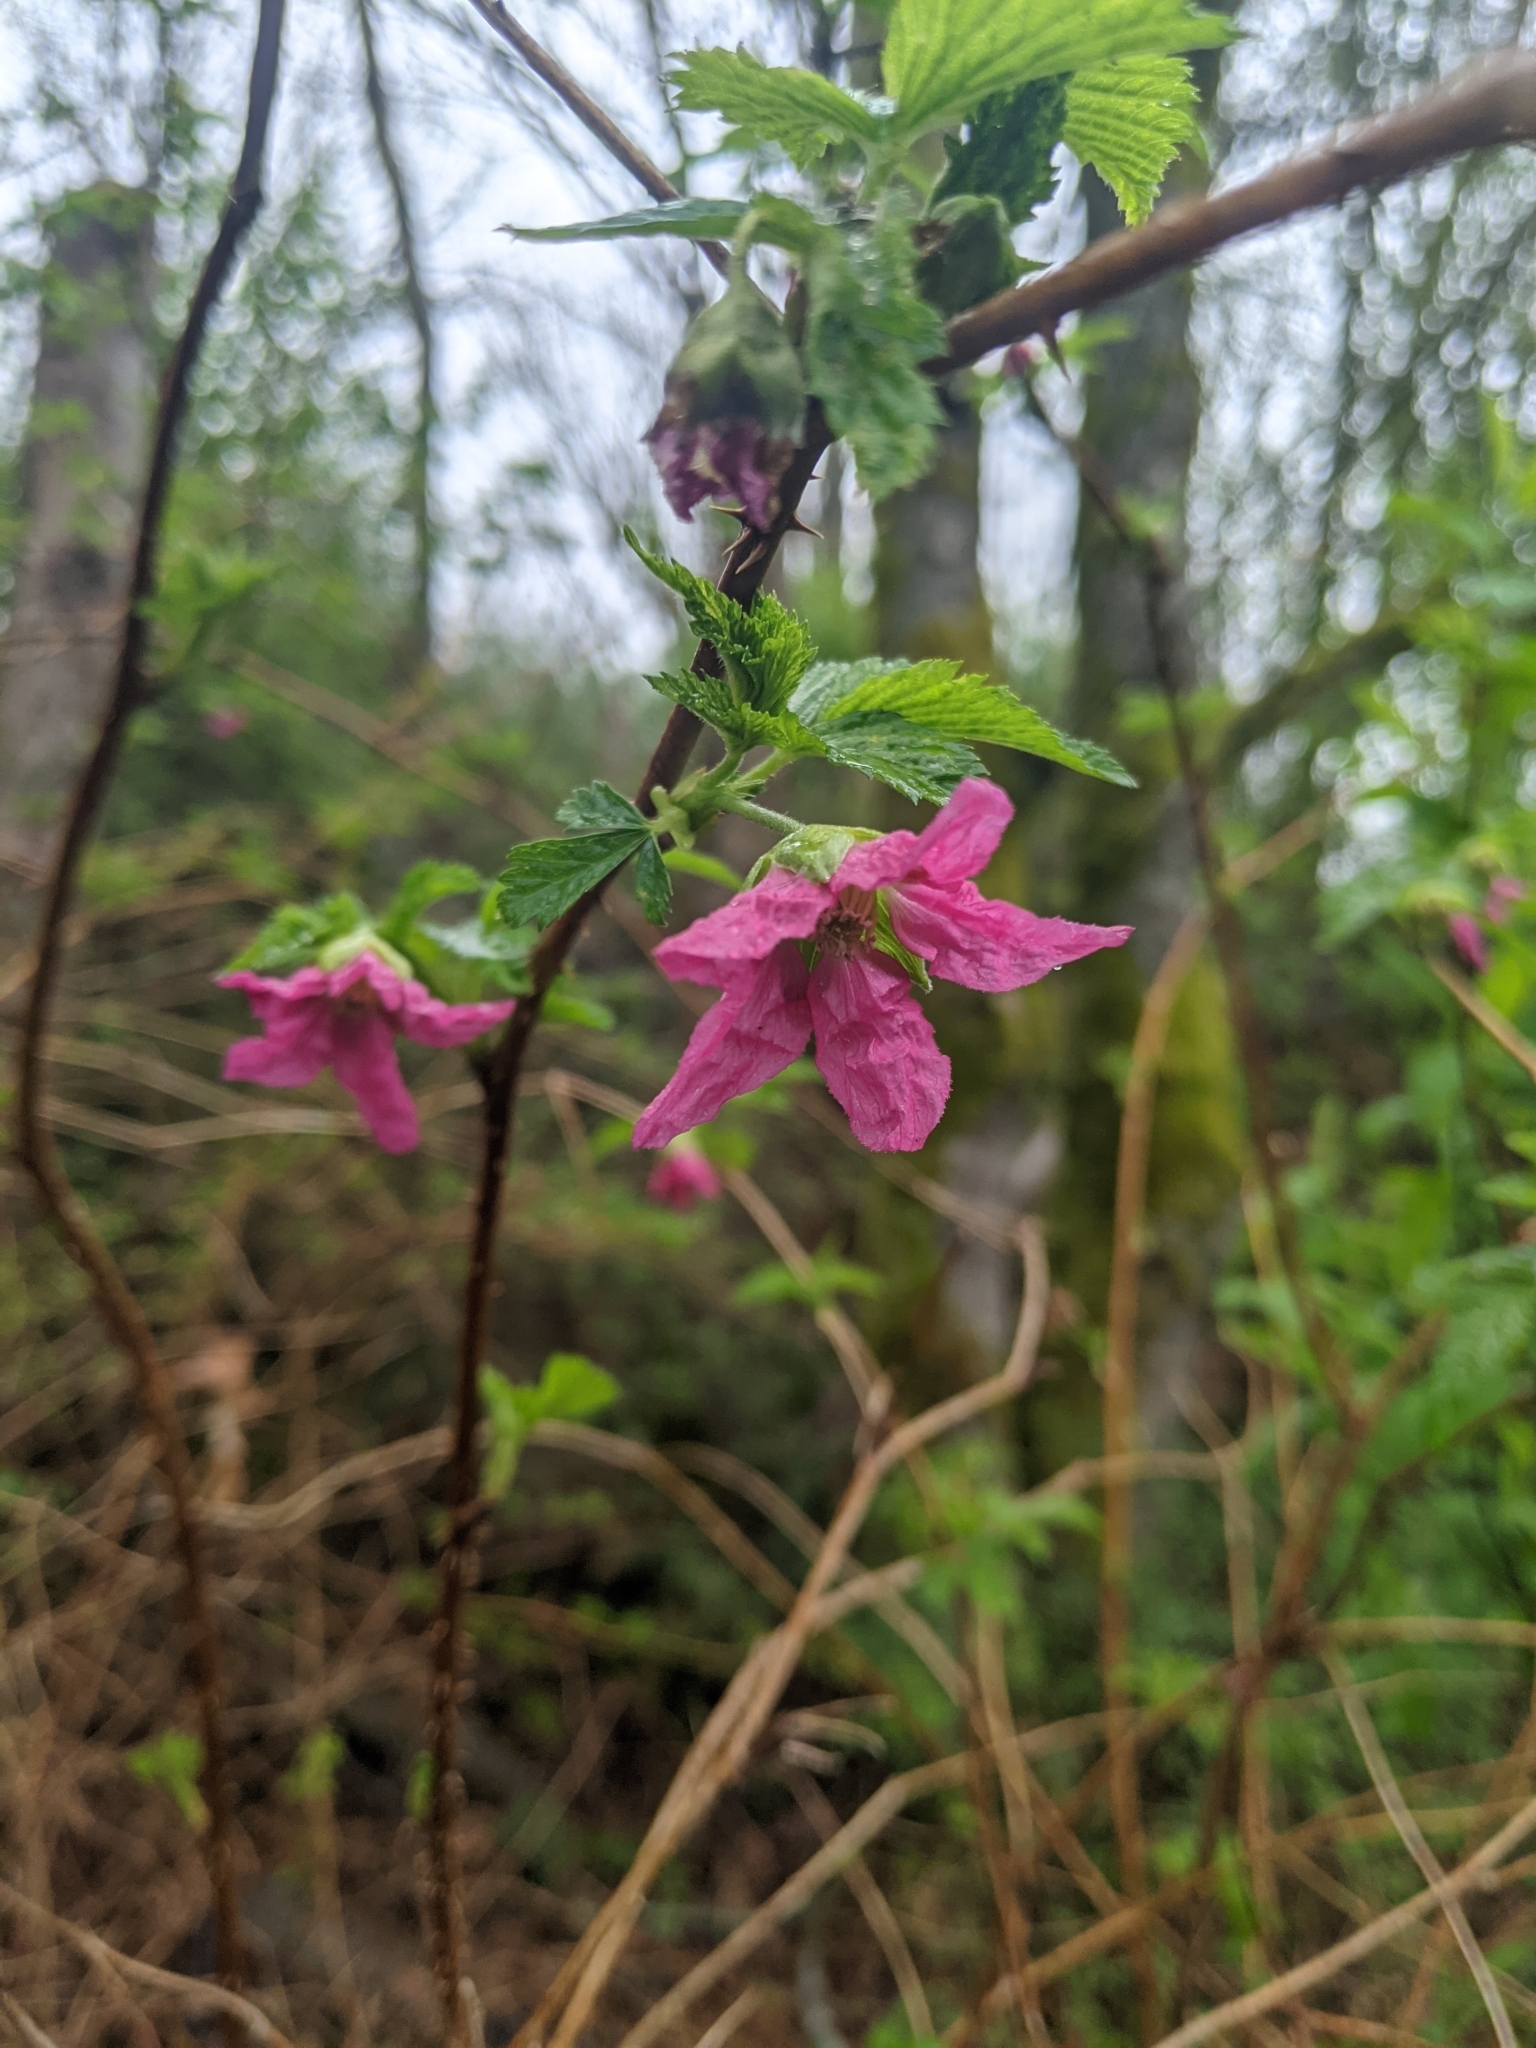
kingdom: Plantae
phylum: Tracheophyta
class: Magnoliopsida
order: Rosales
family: Rosaceae
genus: Rubus
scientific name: Rubus spectabilis
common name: Salmonberry
